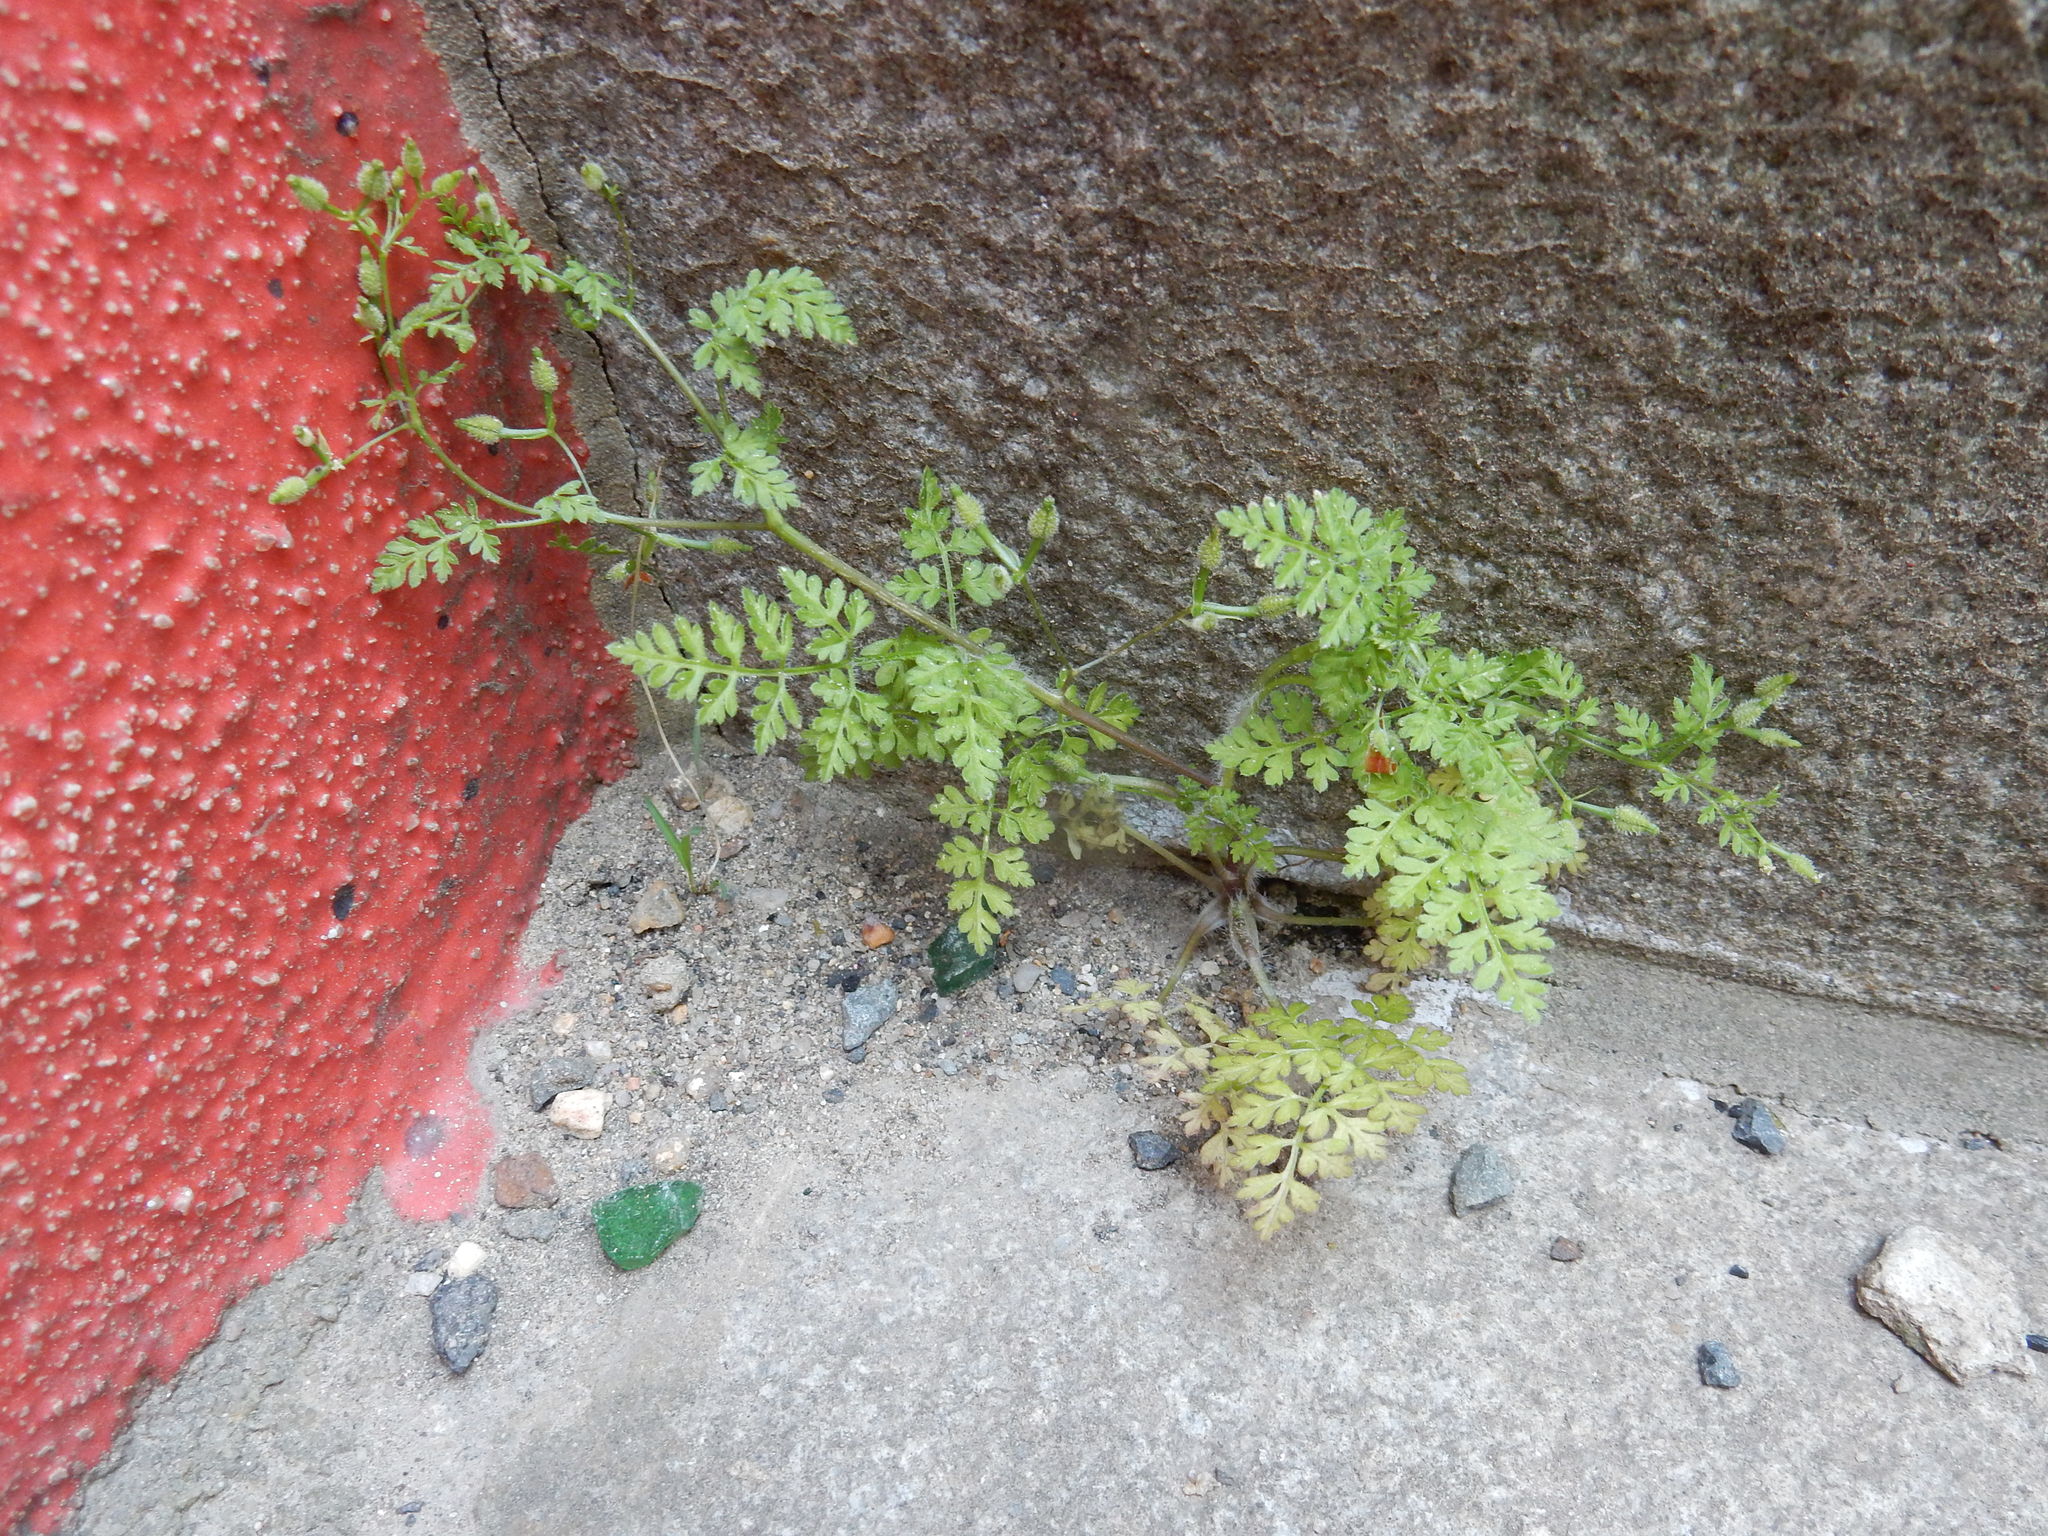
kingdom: Plantae
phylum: Tracheophyta
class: Magnoliopsida
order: Apiales
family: Apiaceae
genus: Anthriscus
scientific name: Anthriscus caucalis
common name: Bur chervil
